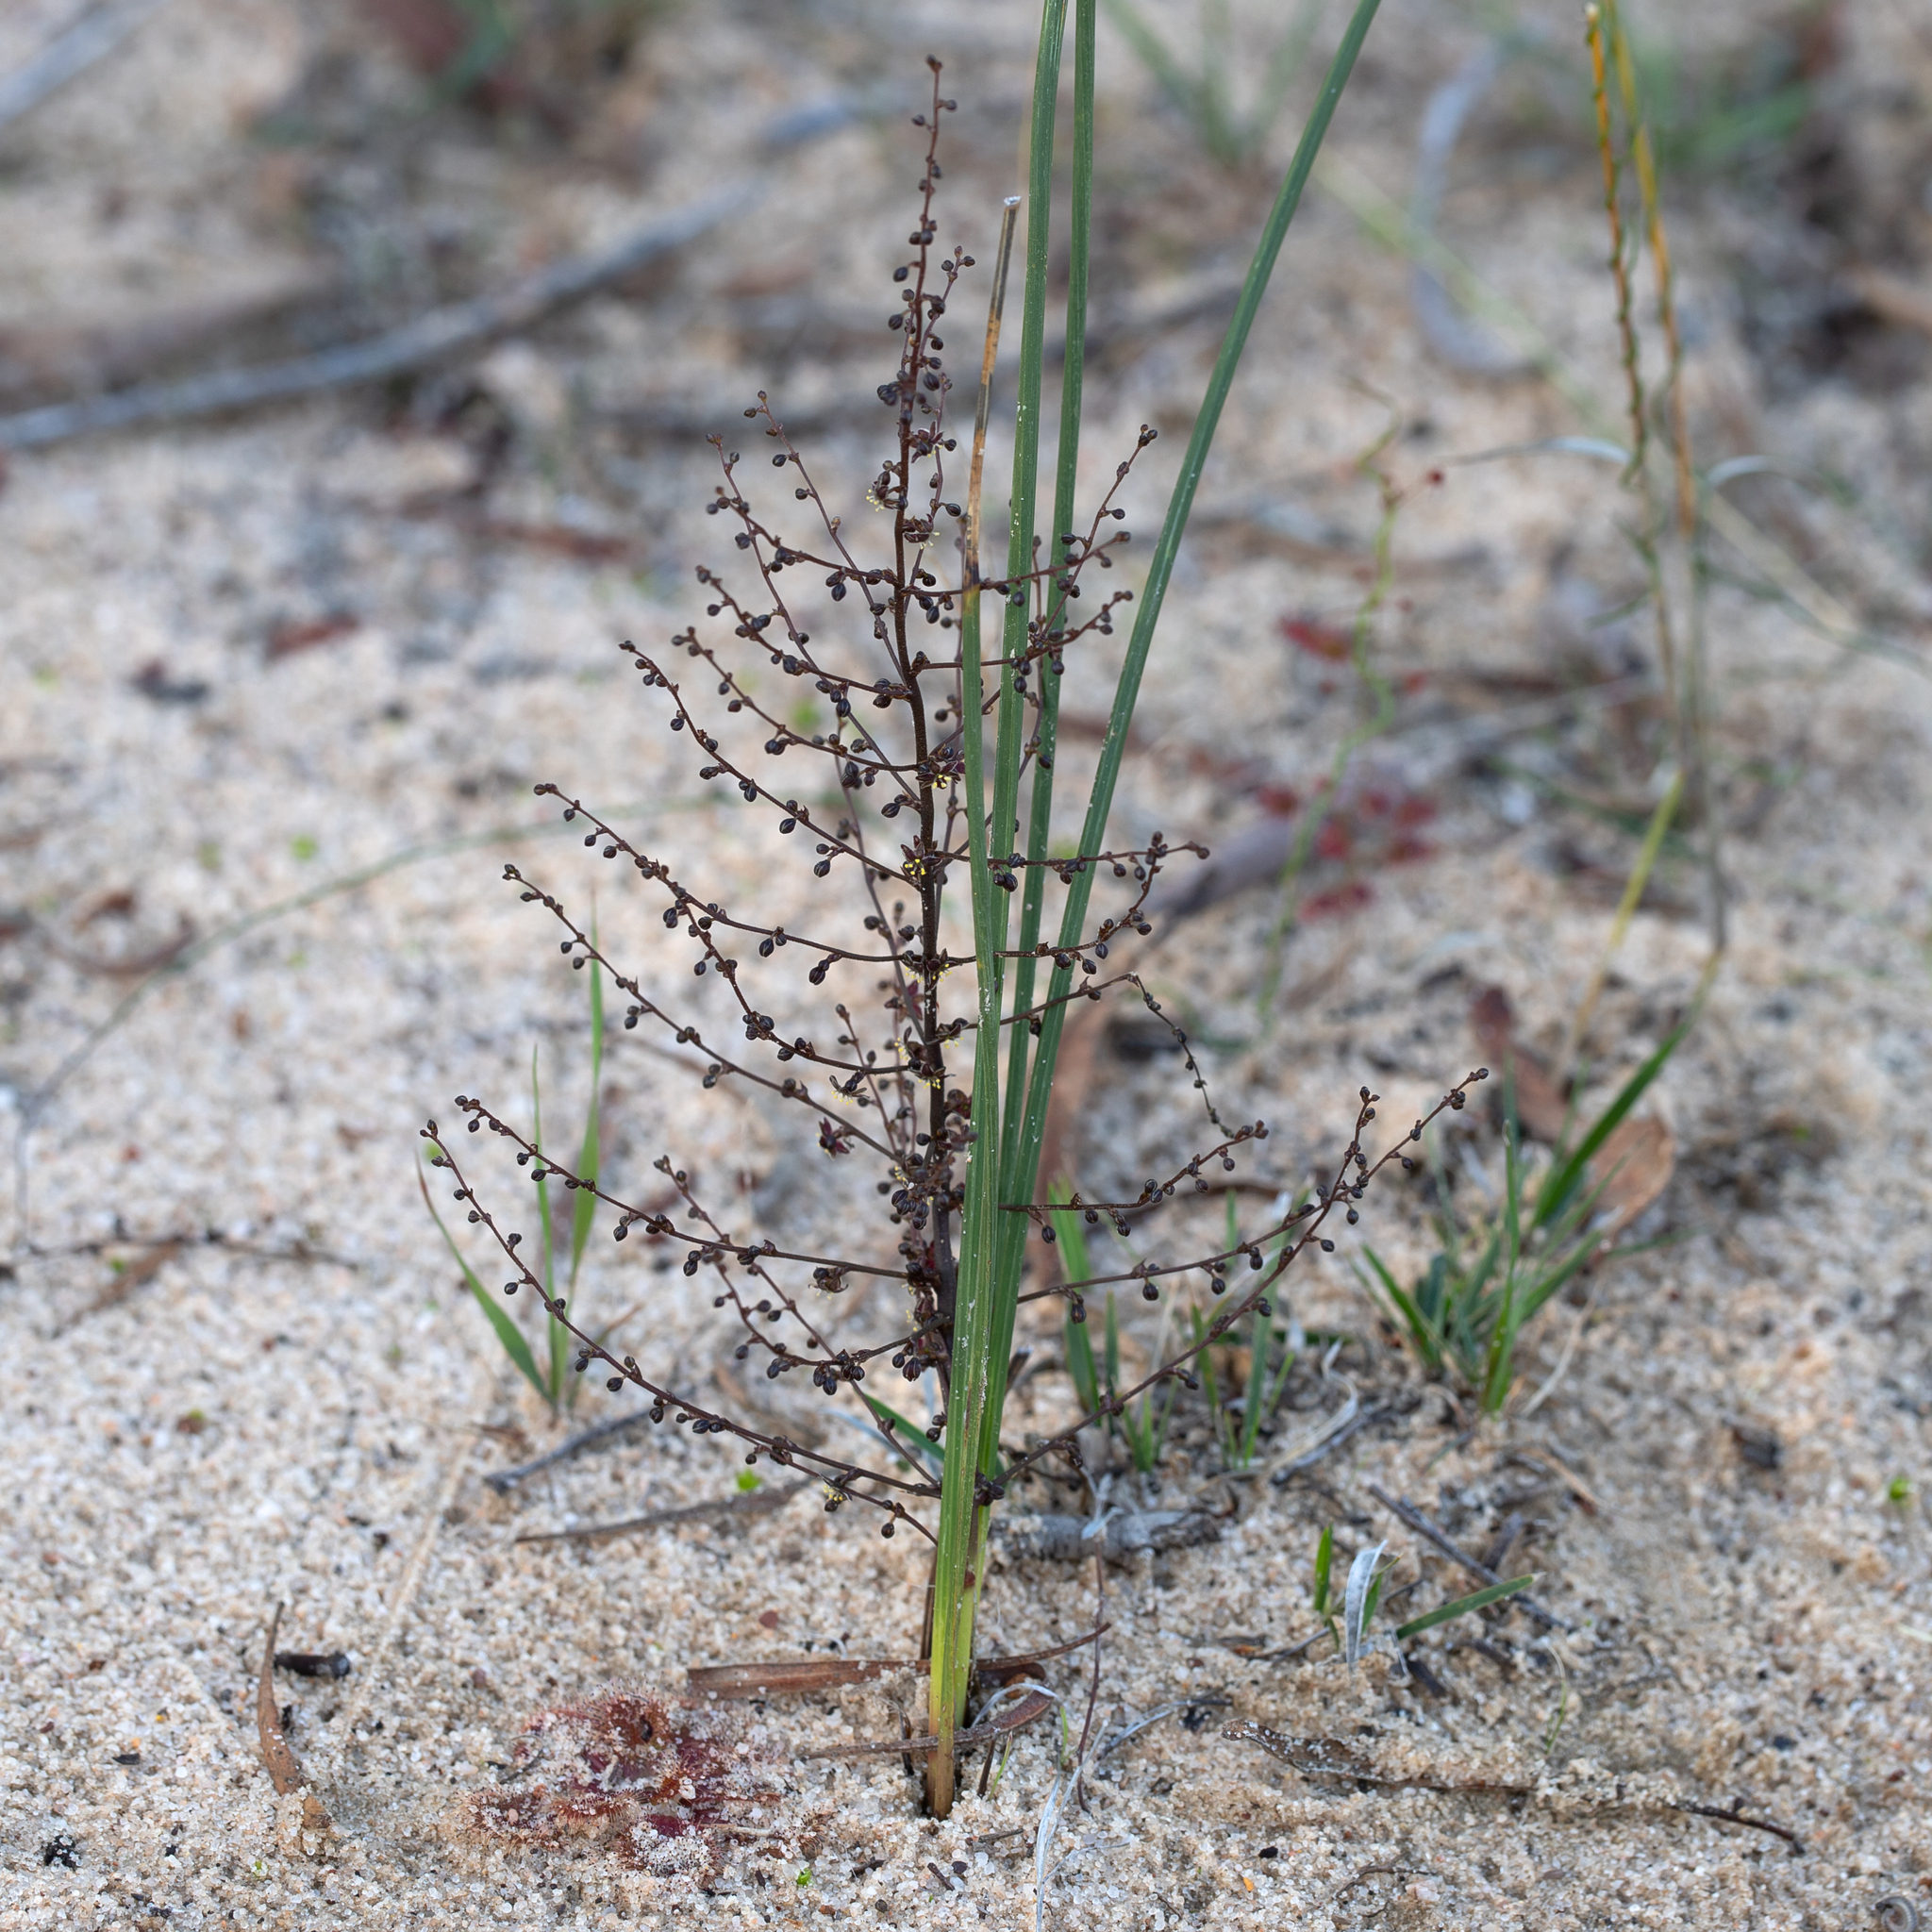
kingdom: Plantae
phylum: Tracheophyta
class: Liliopsida
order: Asparagales
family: Asparagaceae
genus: Lomandra
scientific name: Lomandra micrantha
